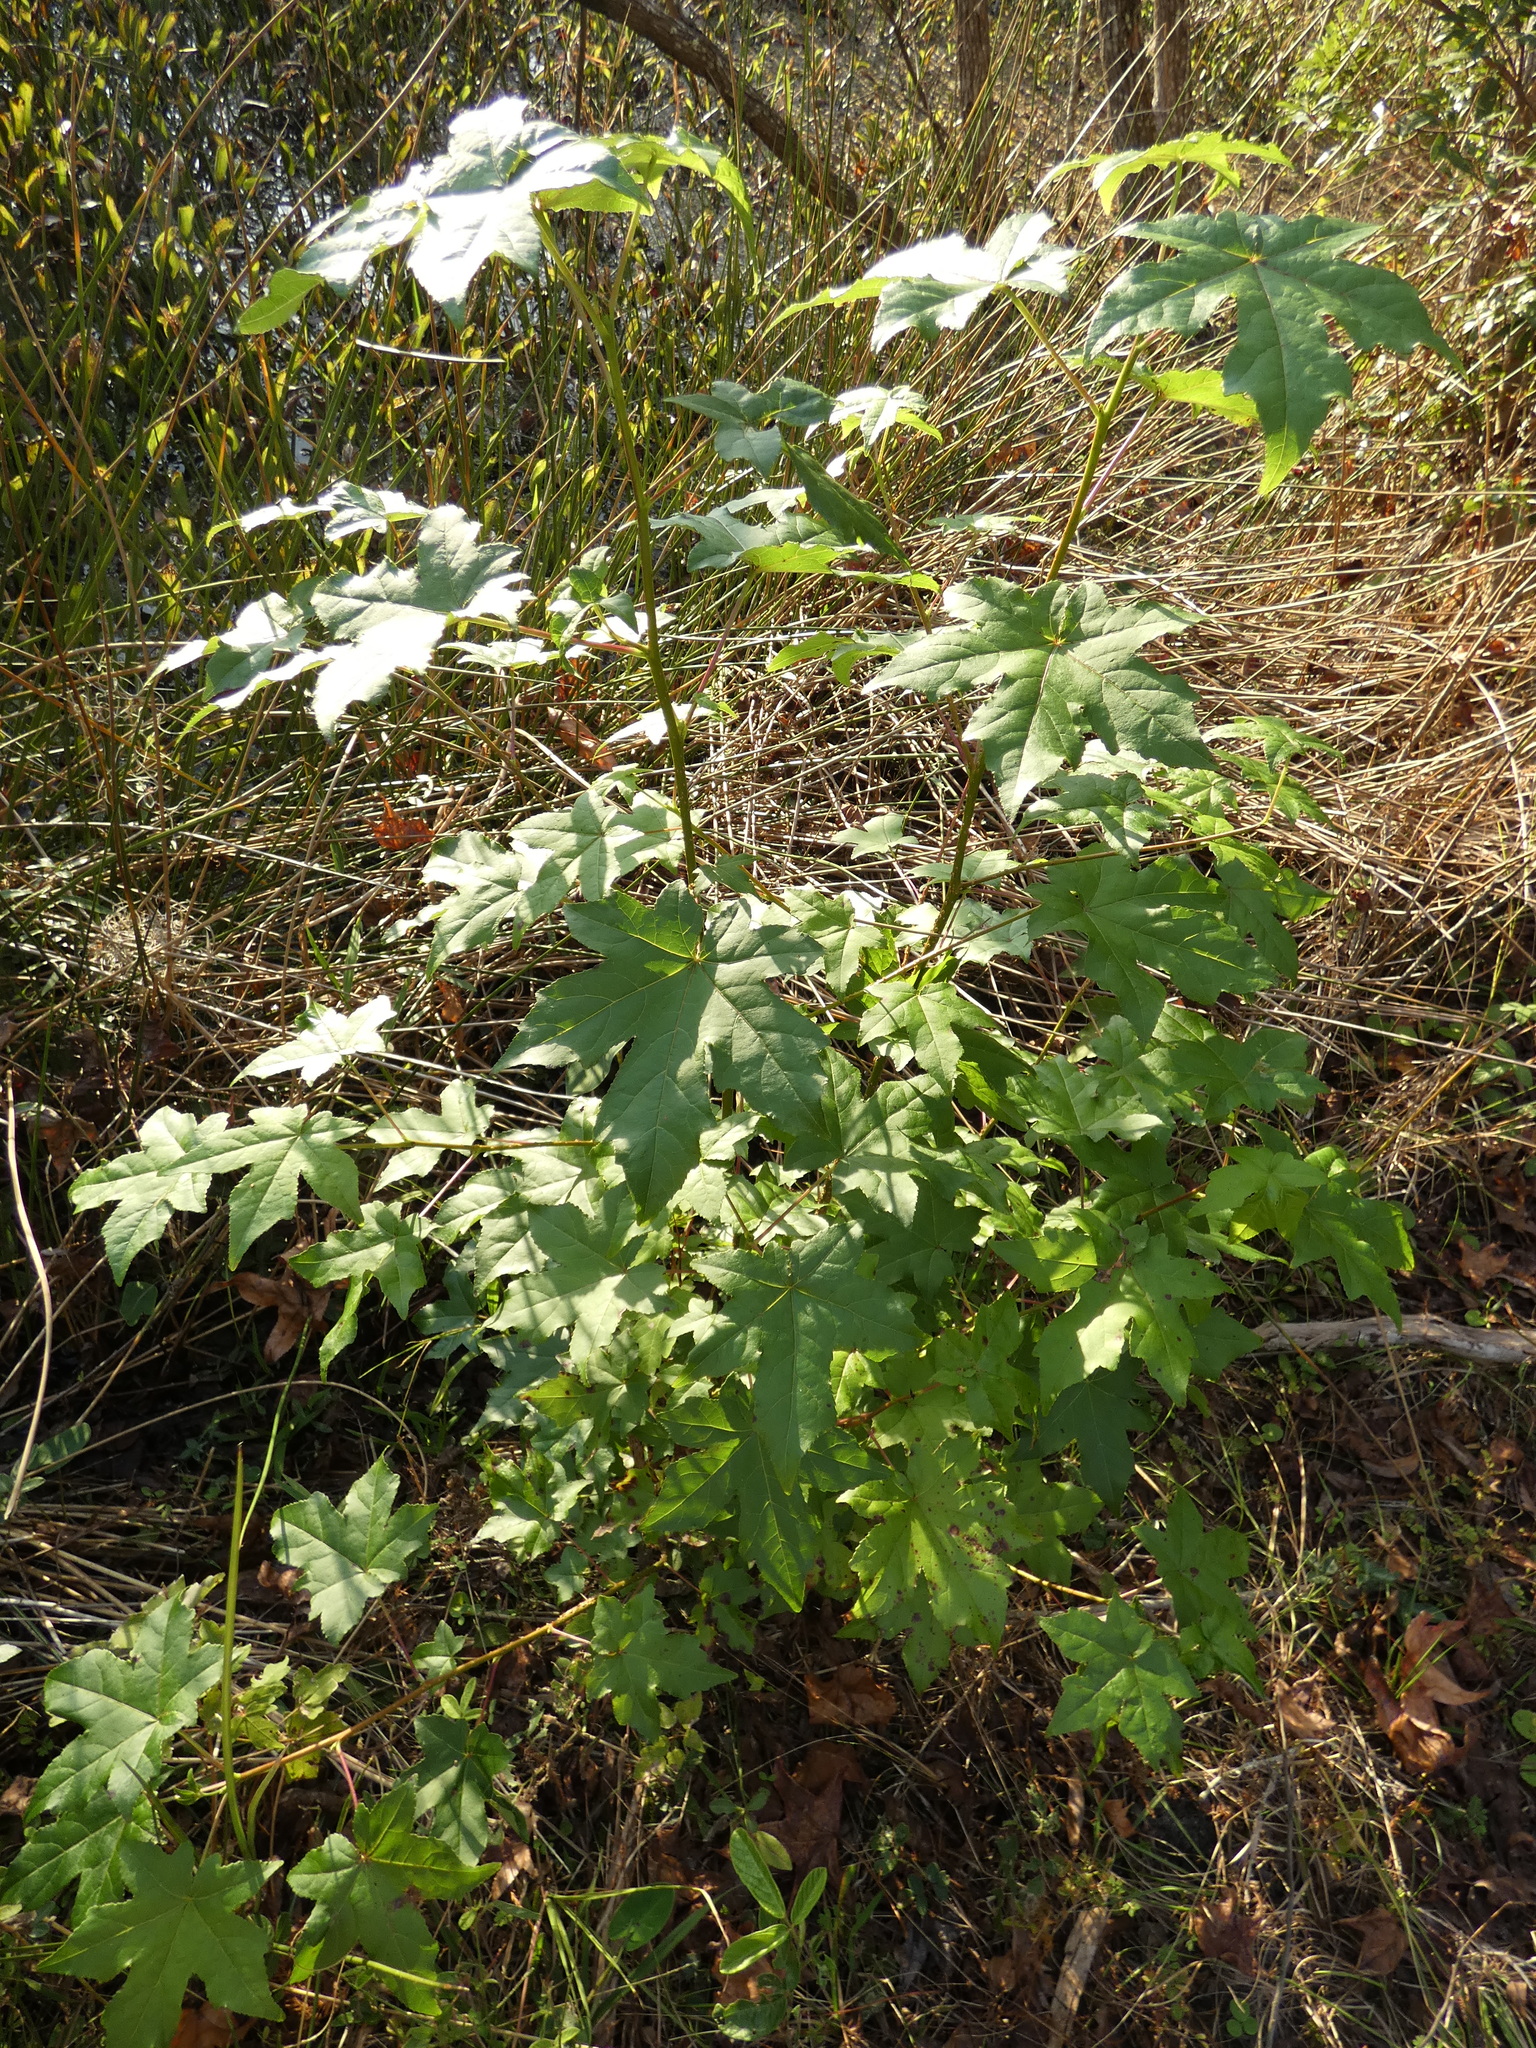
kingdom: Plantae
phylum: Tracheophyta
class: Magnoliopsida
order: Saxifragales
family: Altingiaceae
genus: Liquidambar
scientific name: Liquidambar styraciflua
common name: Sweet gum
